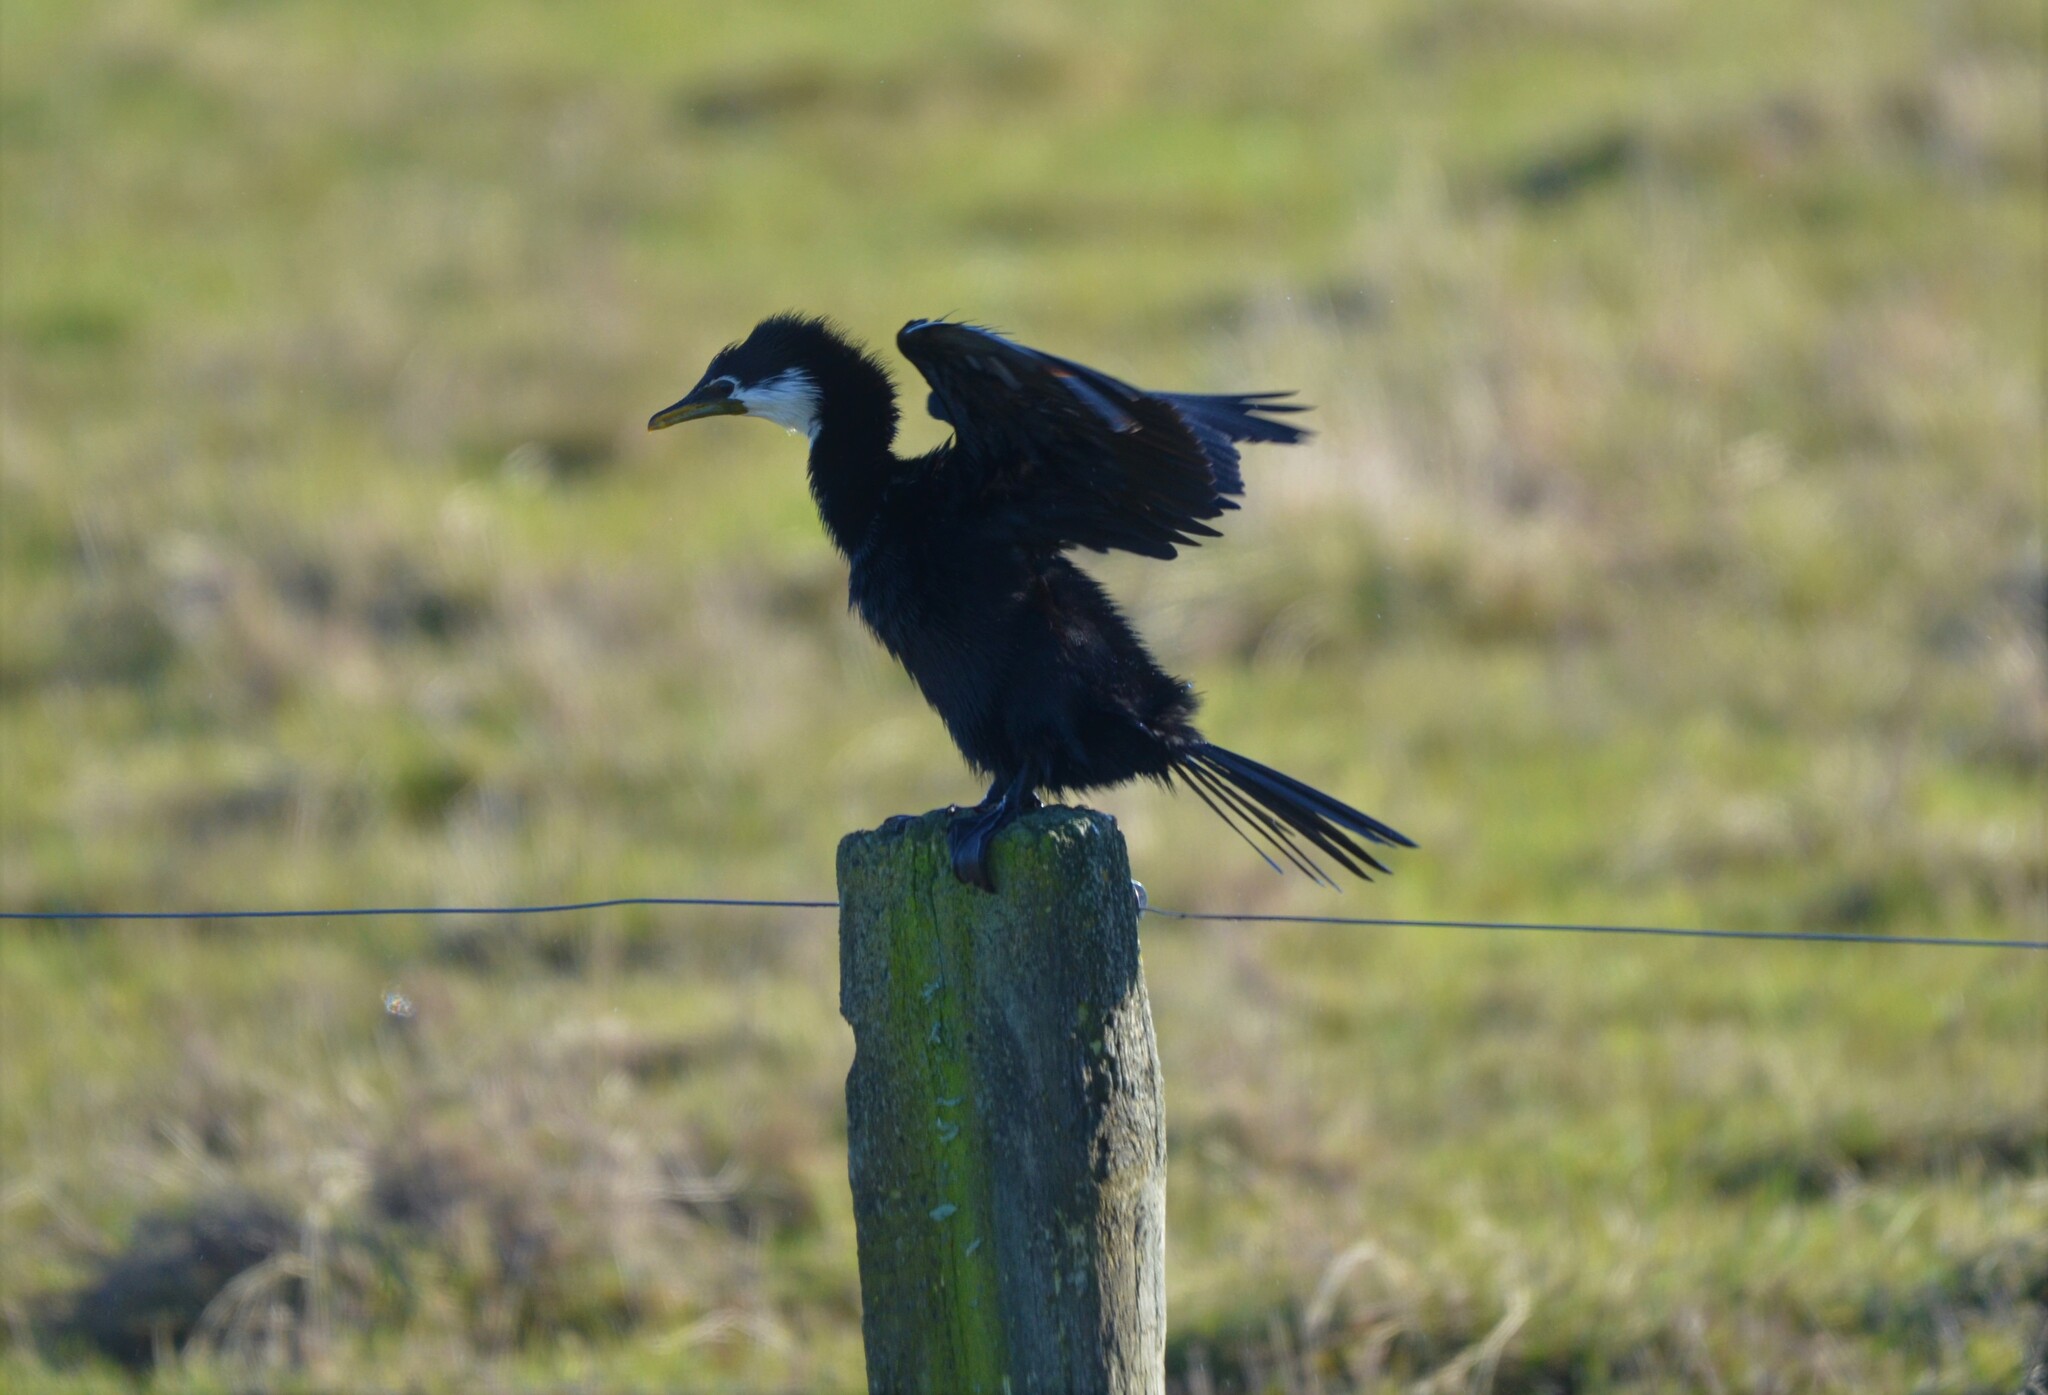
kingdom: Animalia
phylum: Chordata
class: Aves
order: Suliformes
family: Phalacrocoracidae
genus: Microcarbo
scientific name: Microcarbo melanoleucos
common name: Little pied cormorant
